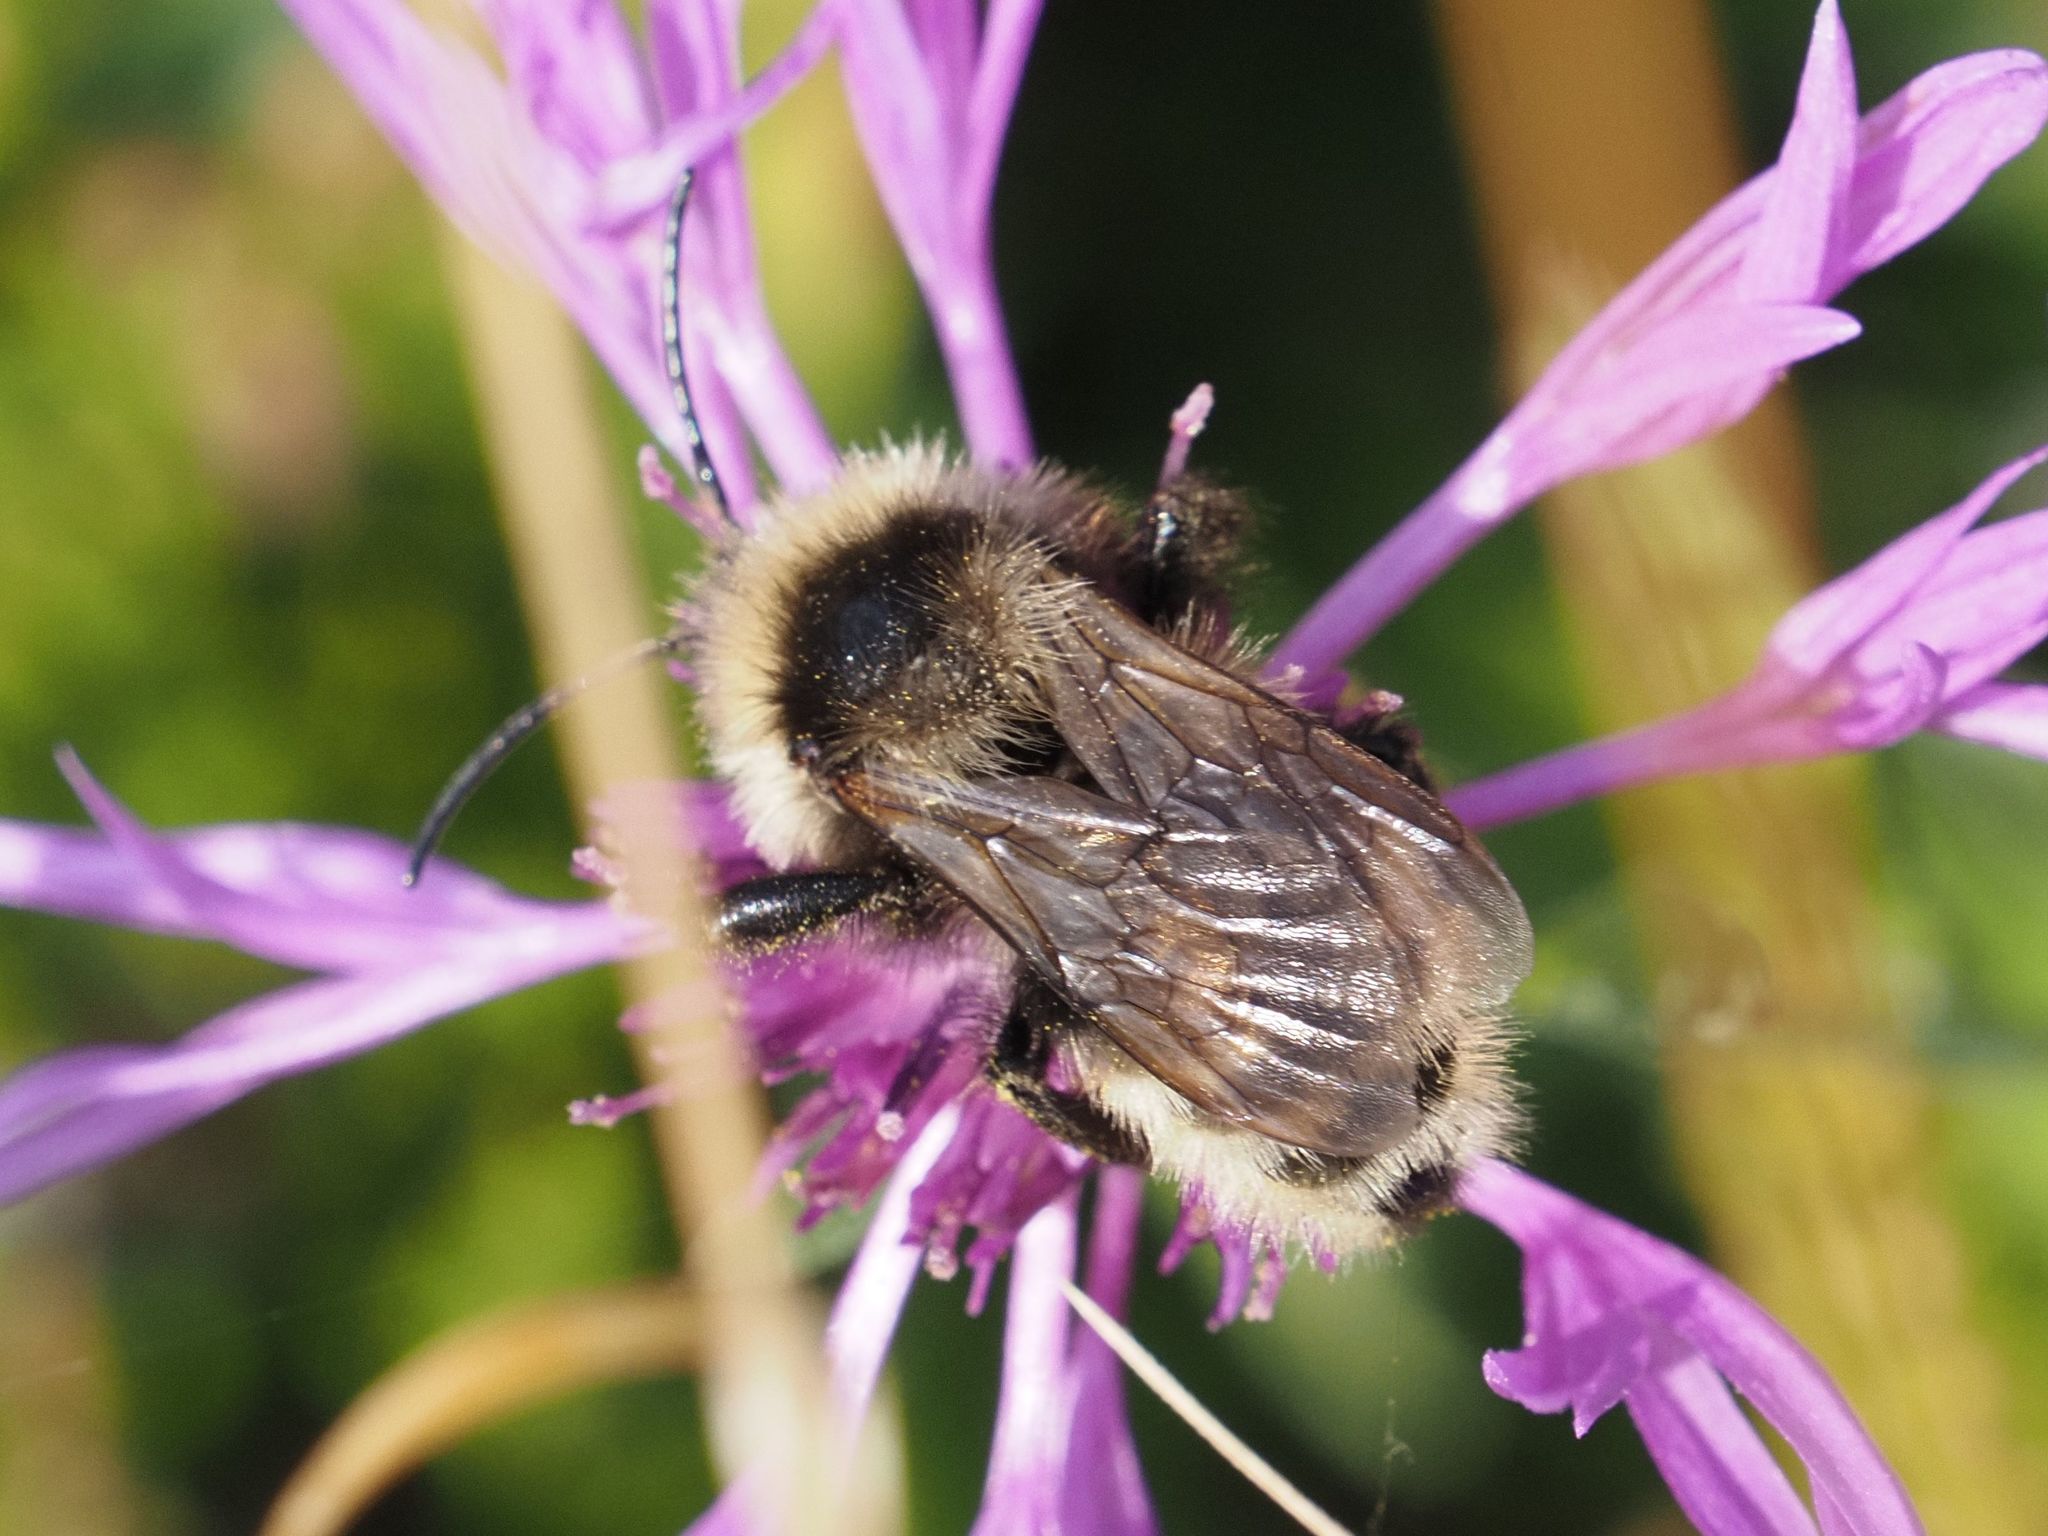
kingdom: Animalia
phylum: Arthropoda
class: Insecta
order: Hymenoptera
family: Apidae
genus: Bombus
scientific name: Bombus campestris
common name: Field cuckoo-bee
